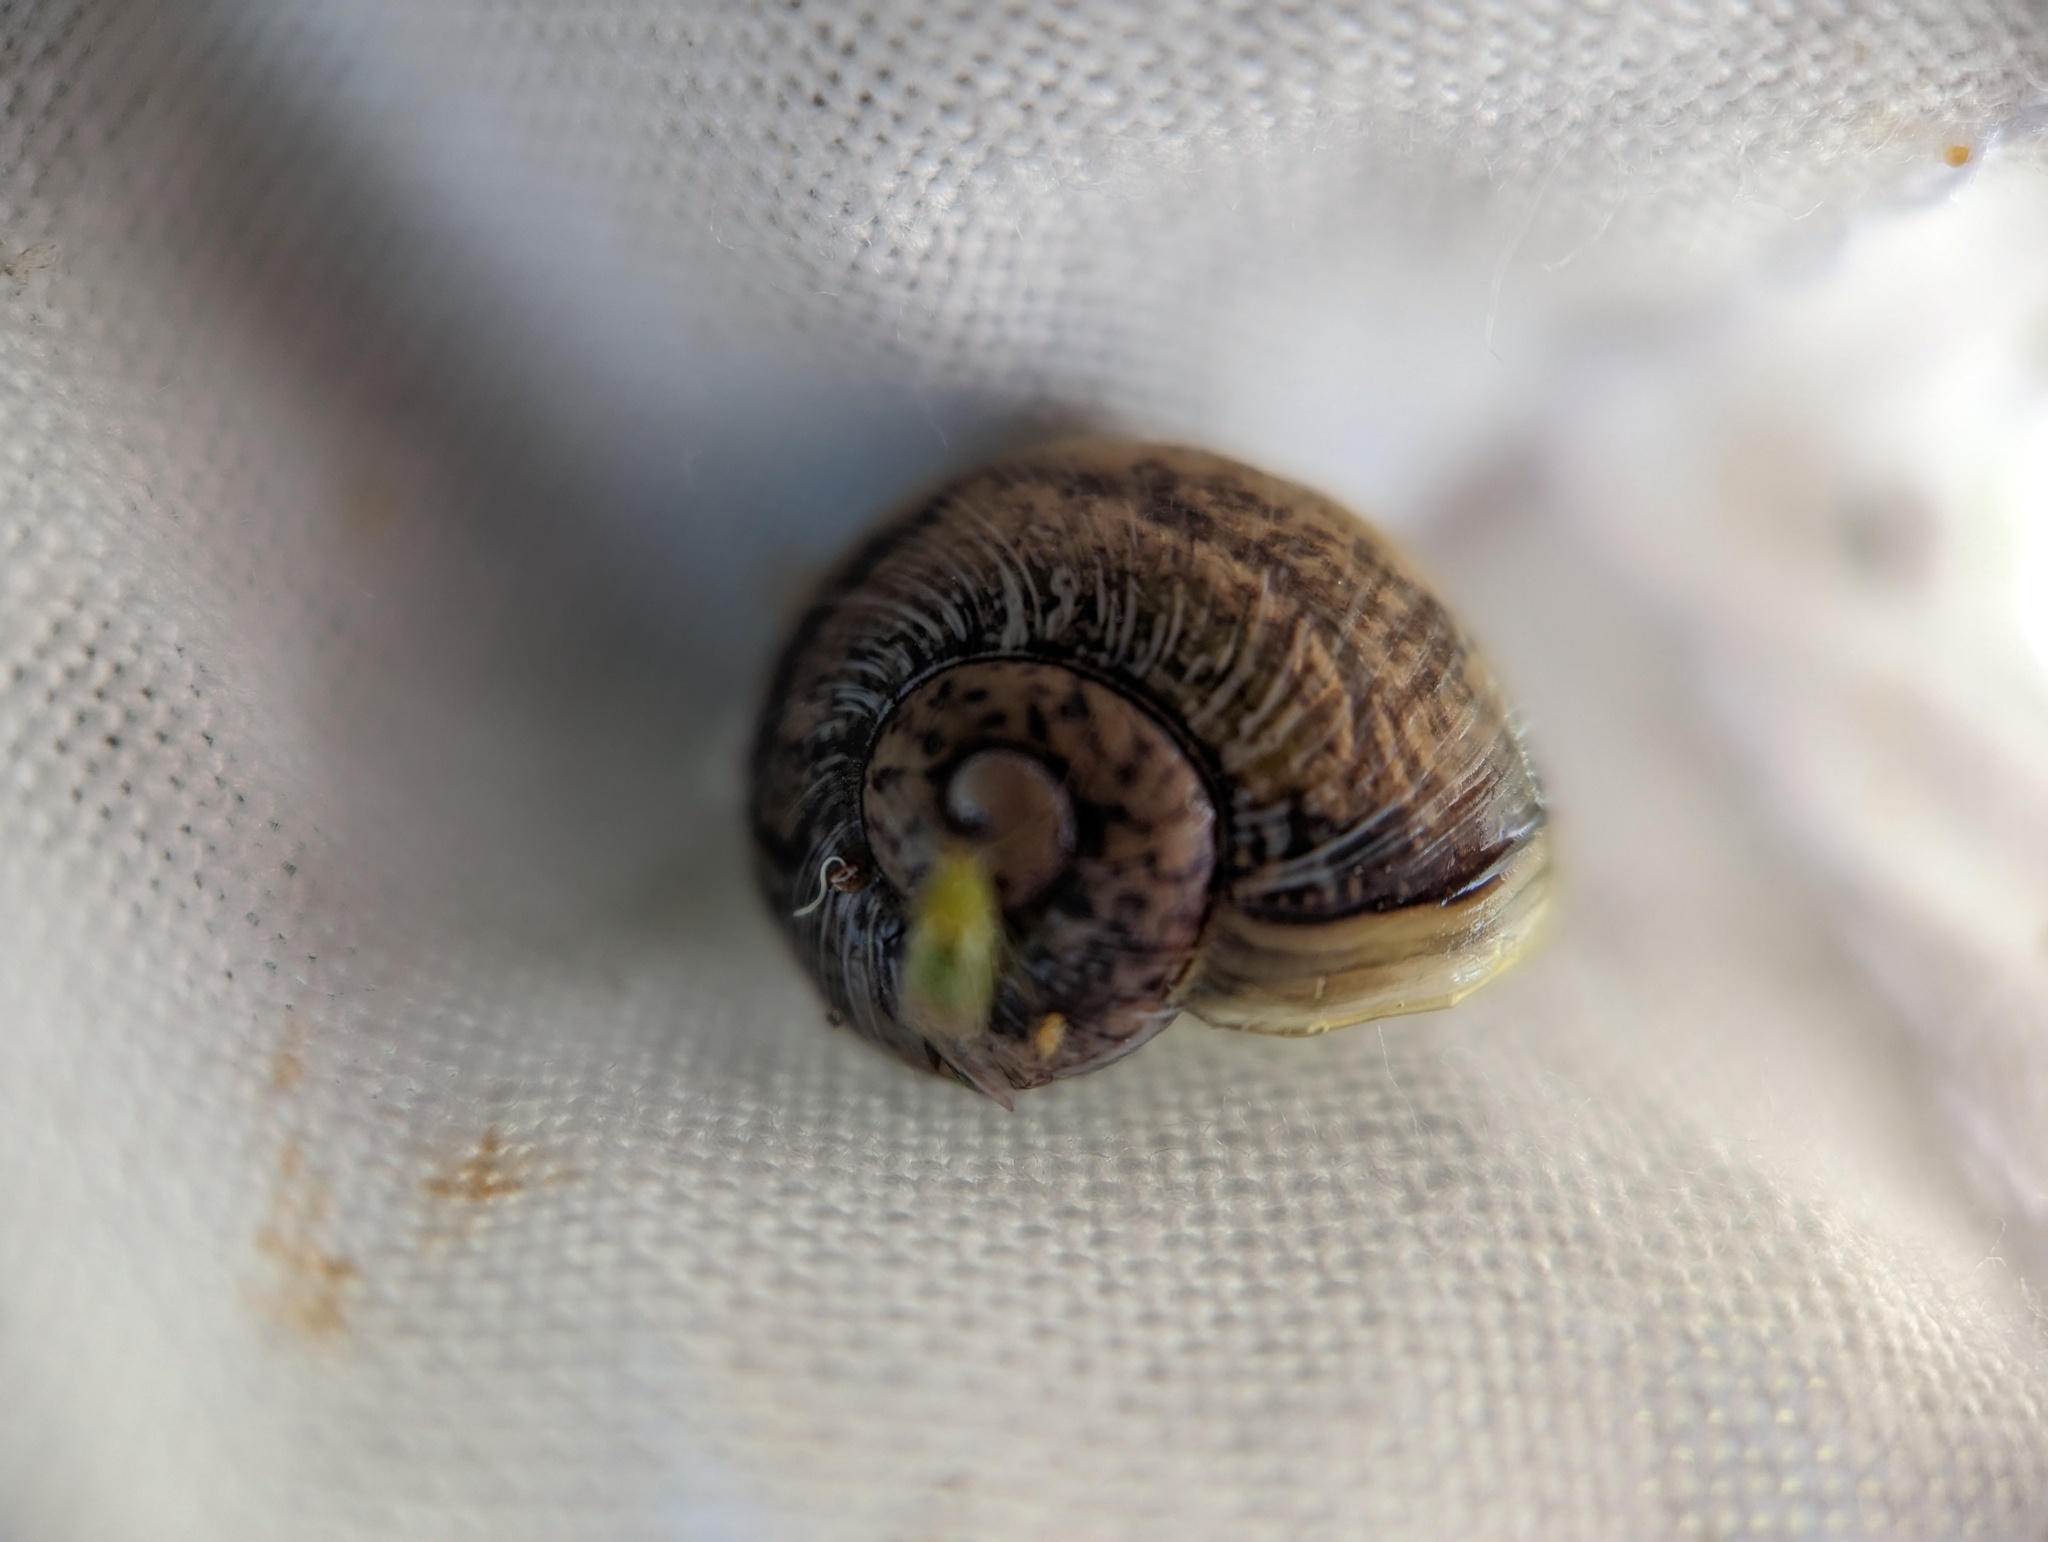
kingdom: Animalia
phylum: Mollusca
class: Gastropoda
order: Stylommatophora
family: Helicidae
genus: Cornu
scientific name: Cornu aspersum
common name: Brown garden snail
